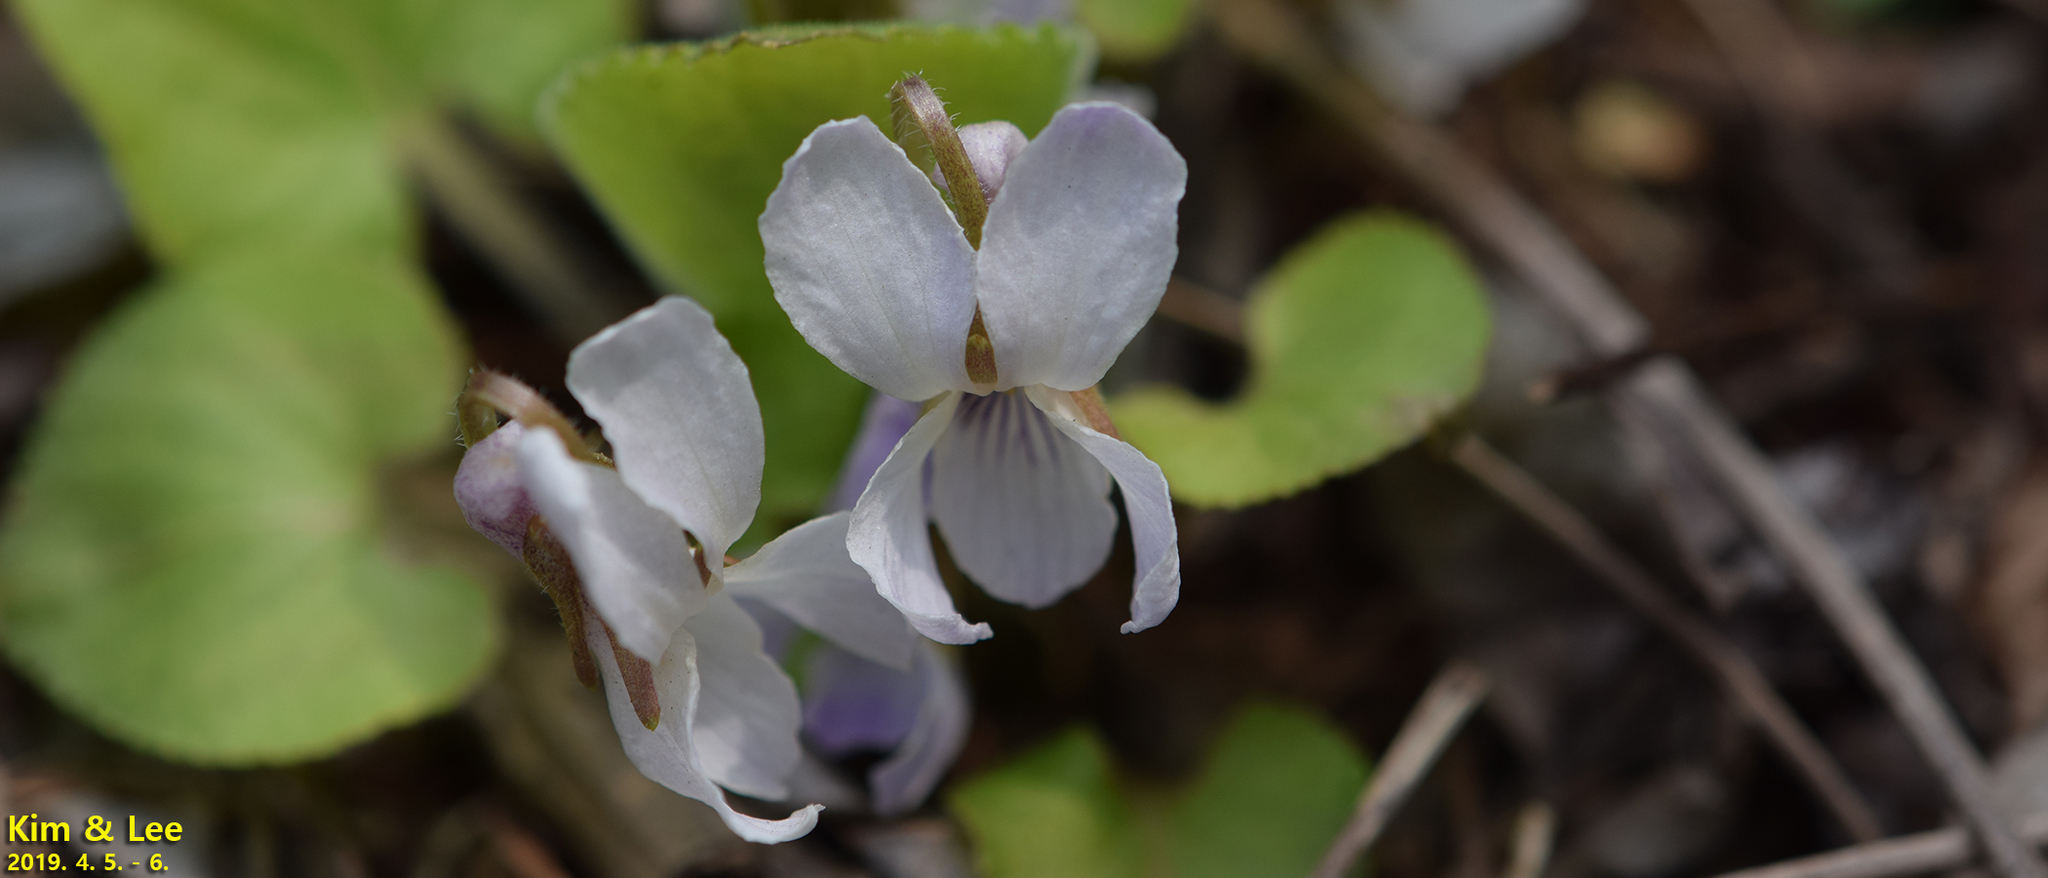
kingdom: Plantae
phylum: Tracheophyta
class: Magnoliopsida
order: Malpighiales
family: Violaceae
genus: Viola
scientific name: Viola collina
